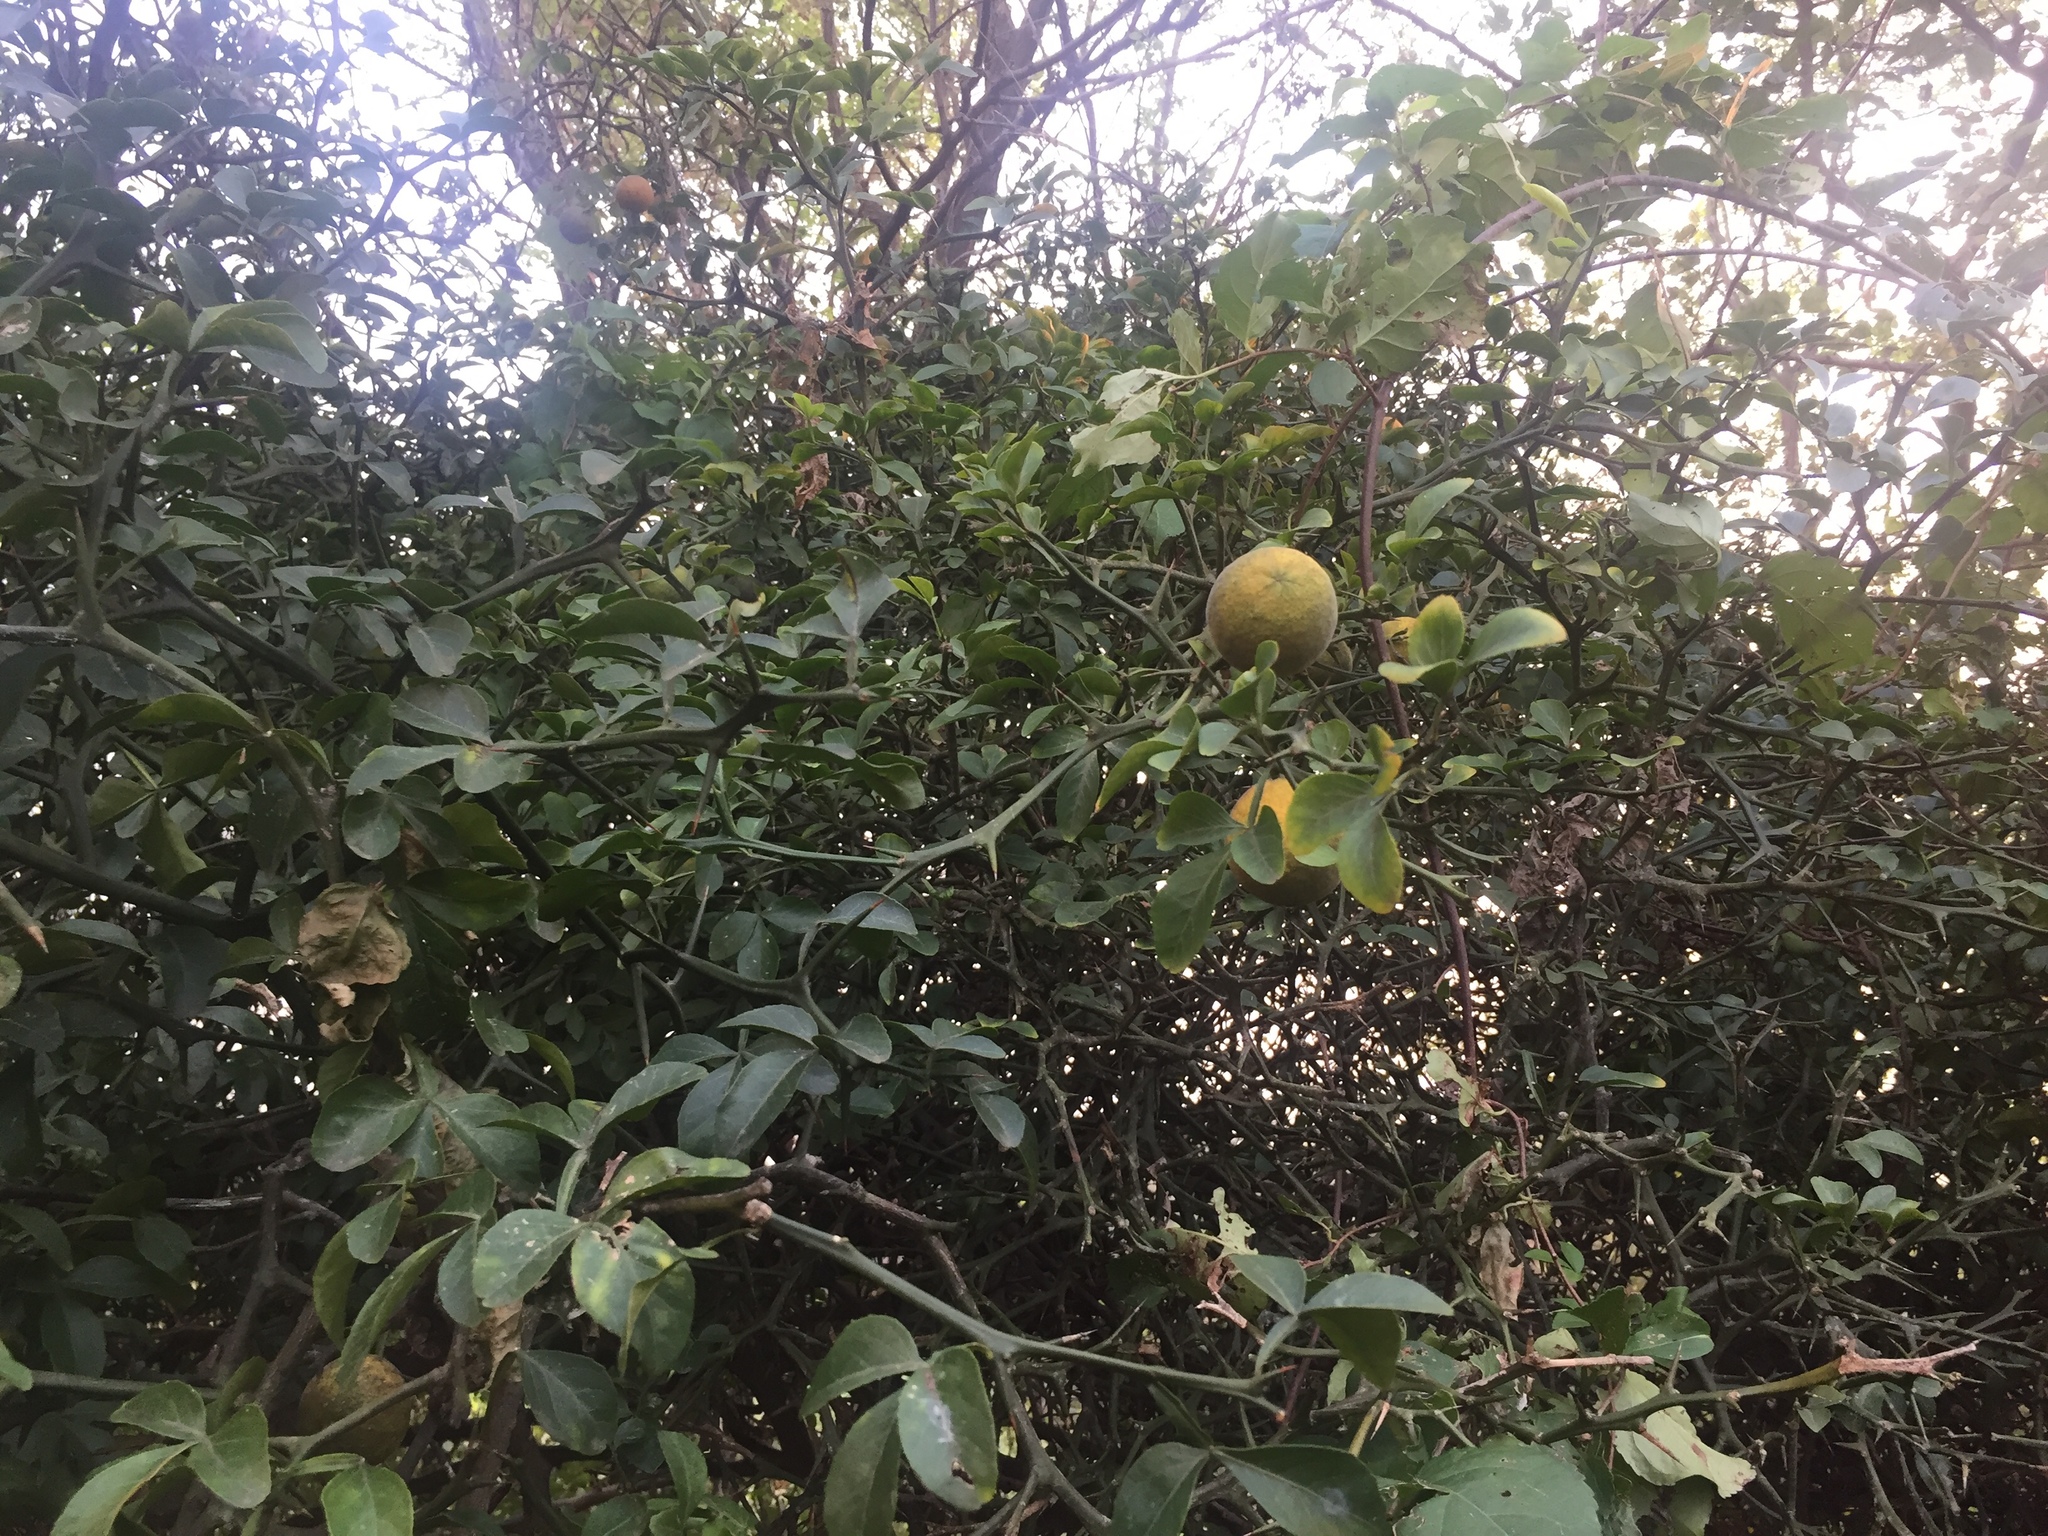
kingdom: Plantae
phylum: Tracheophyta
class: Magnoliopsida
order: Sapindales
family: Rutaceae
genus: Citrus
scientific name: Citrus trifoliata
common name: Japanese bitter-orange
